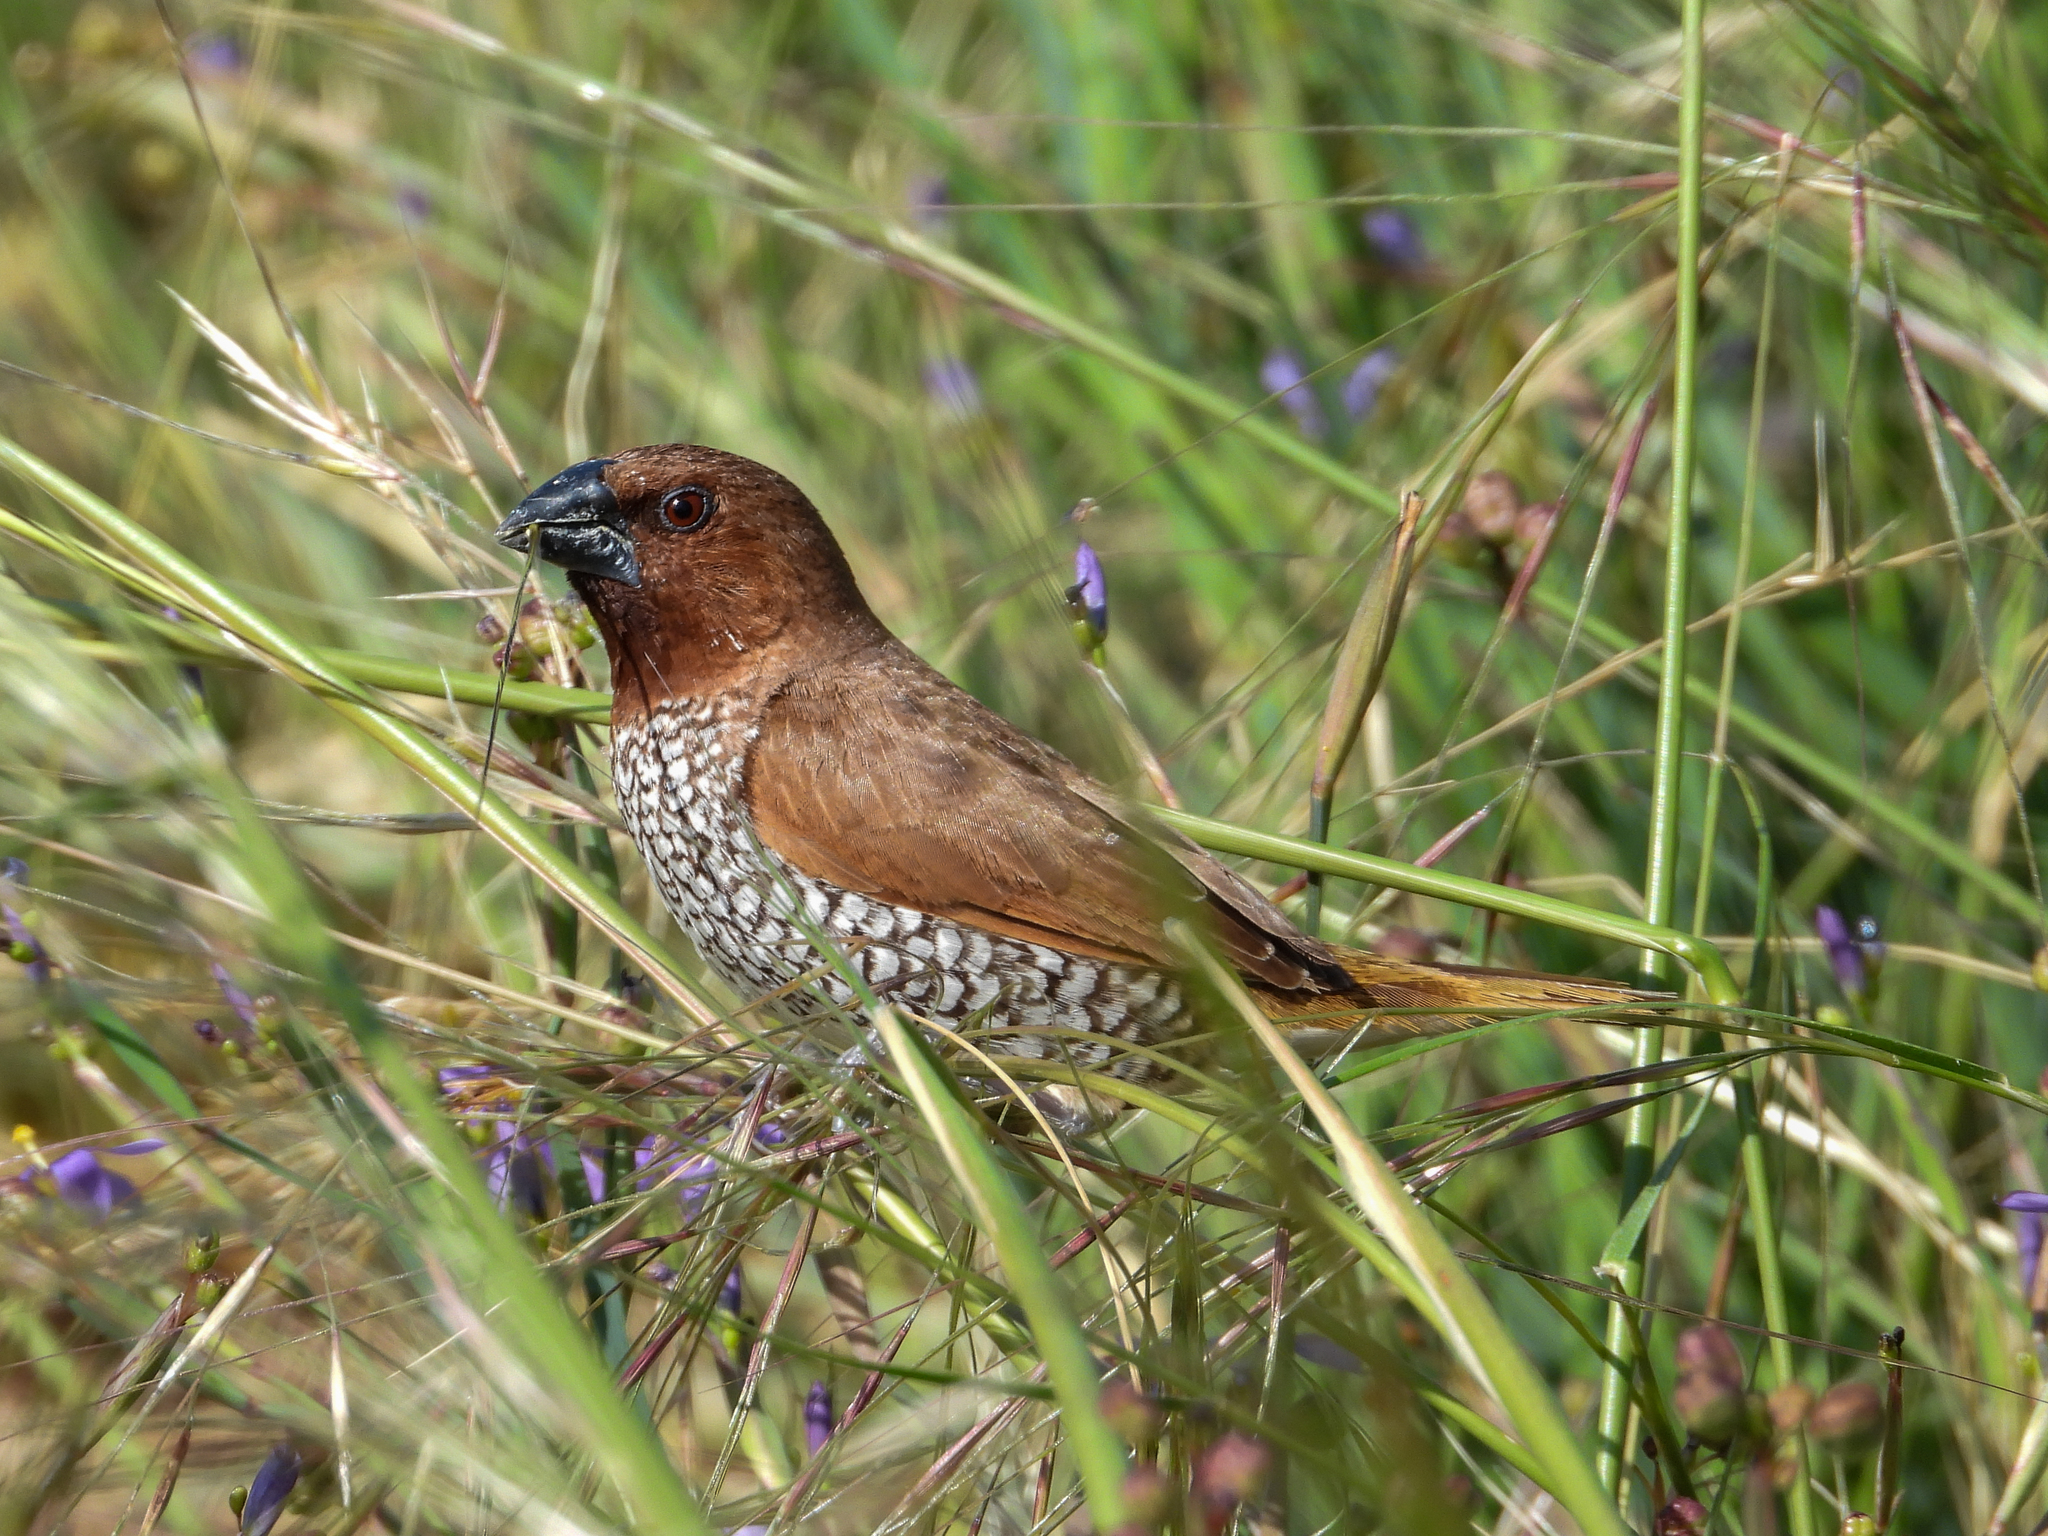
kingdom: Animalia
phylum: Chordata
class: Aves
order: Passeriformes
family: Estrildidae
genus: Lonchura
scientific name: Lonchura punctulata
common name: Scaly-breasted munia
